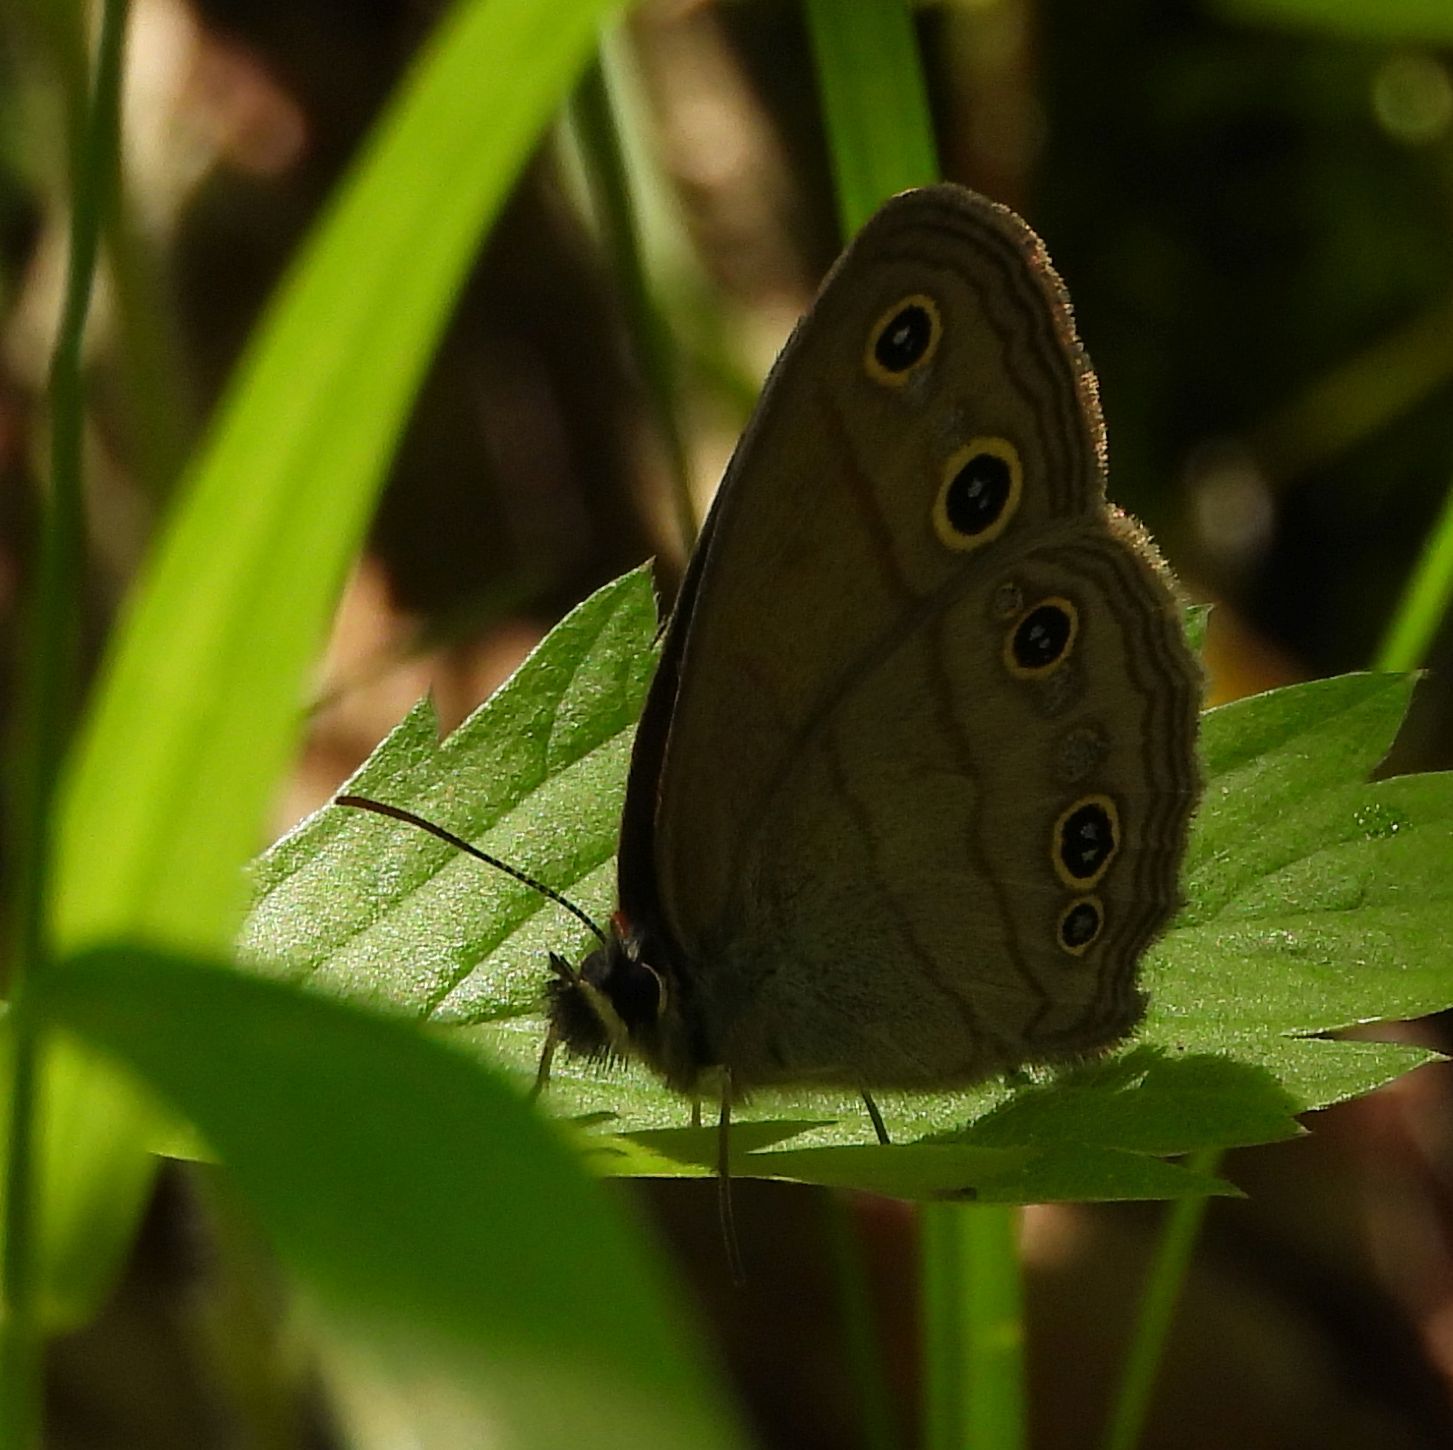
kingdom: Animalia
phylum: Arthropoda
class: Insecta
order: Lepidoptera
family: Nymphalidae
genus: Euptychia
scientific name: Euptychia cymela
